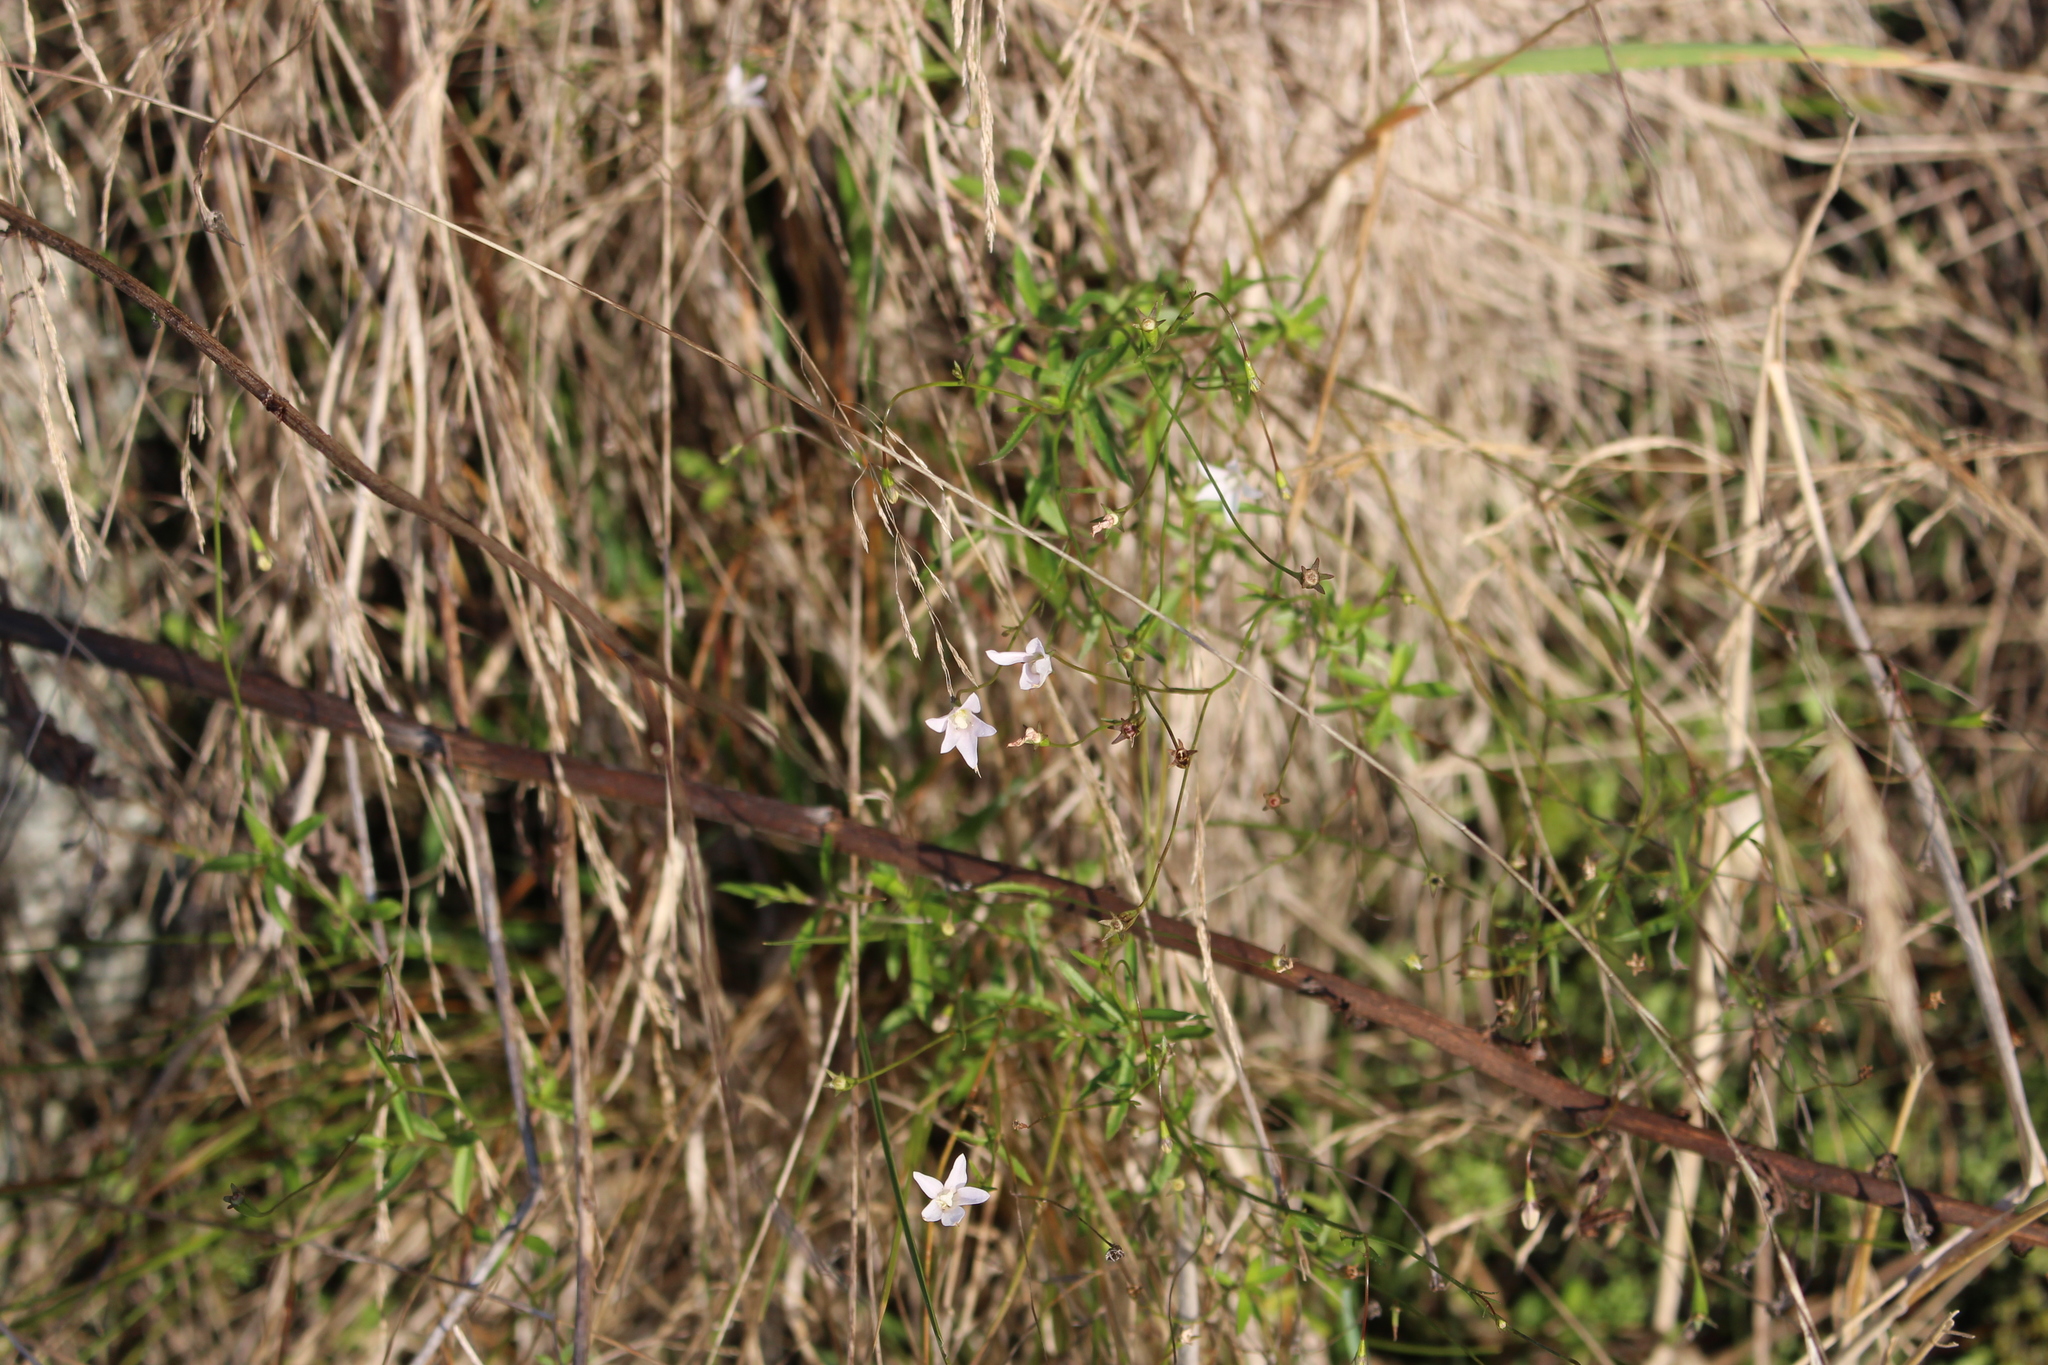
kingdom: Plantae
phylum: Tracheophyta
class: Magnoliopsida
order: Asterales
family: Campanulaceae
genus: Wahlenbergia
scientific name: Wahlenbergia gracilis
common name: Harebell
